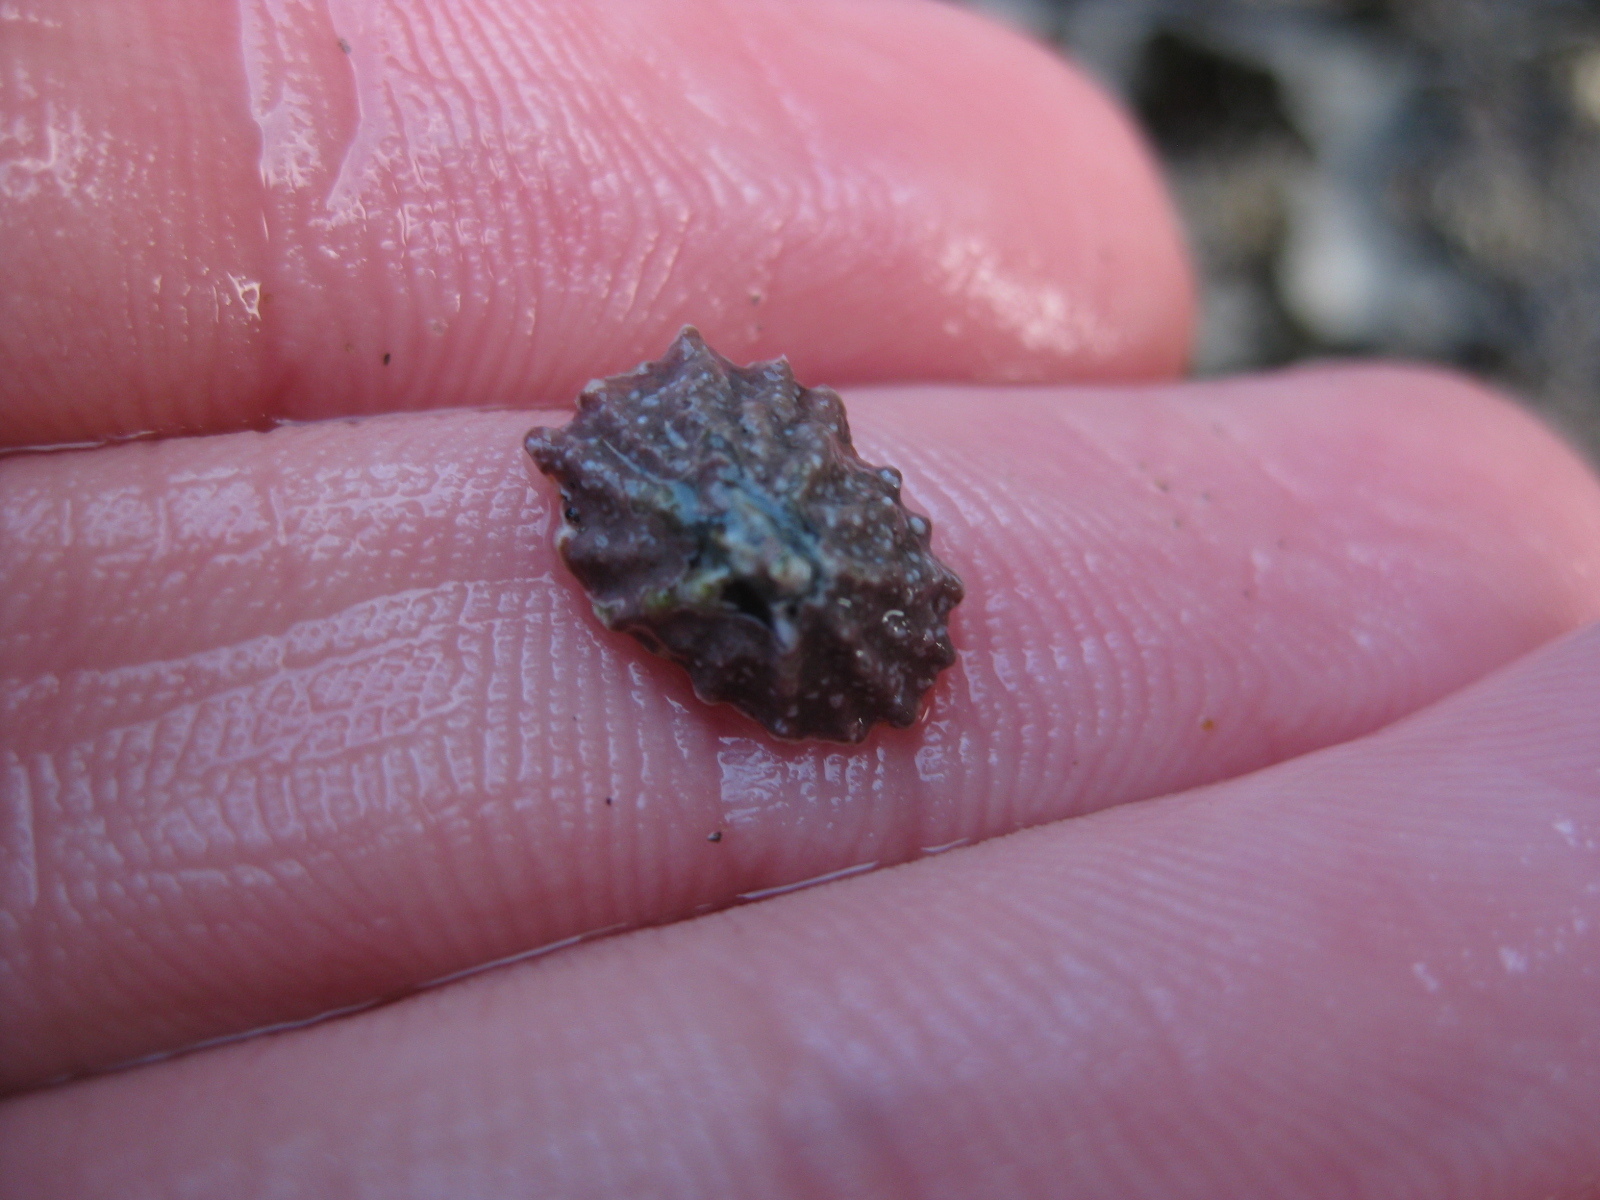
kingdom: Animalia
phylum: Mollusca
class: Gastropoda
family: Lottiidae
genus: Patelloida
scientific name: Patelloida corticata
